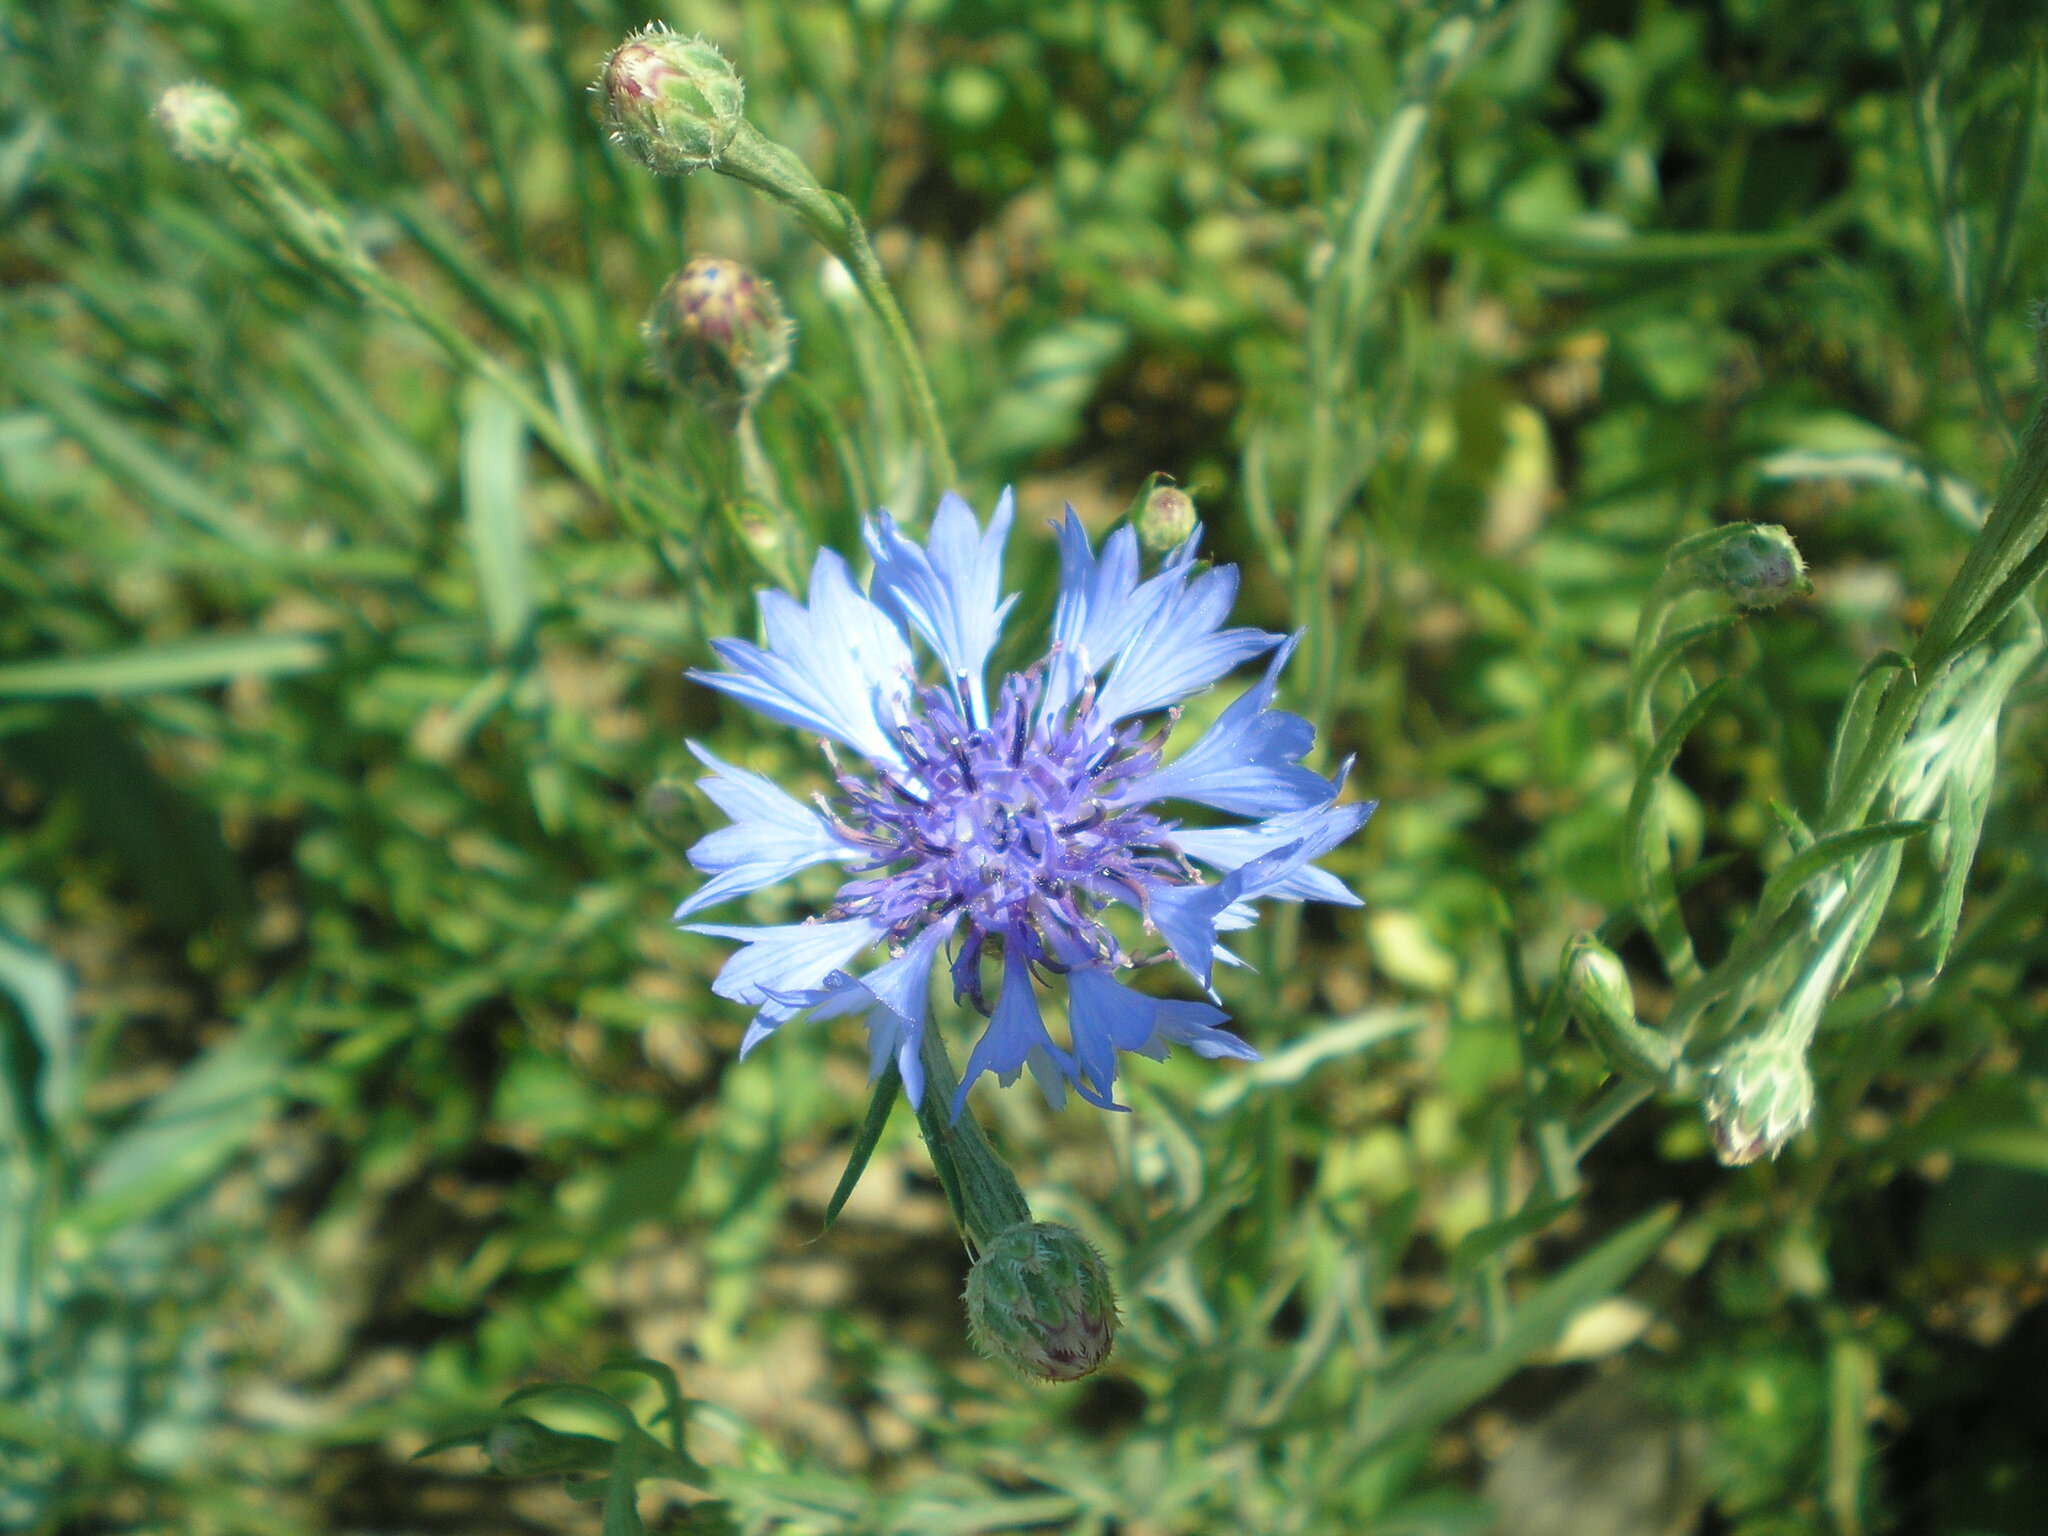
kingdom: Plantae
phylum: Tracheophyta
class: Magnoliopsida
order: Asterales
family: Asteraceae
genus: Centaurea
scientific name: Centaurea cyanus
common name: Cornflower
